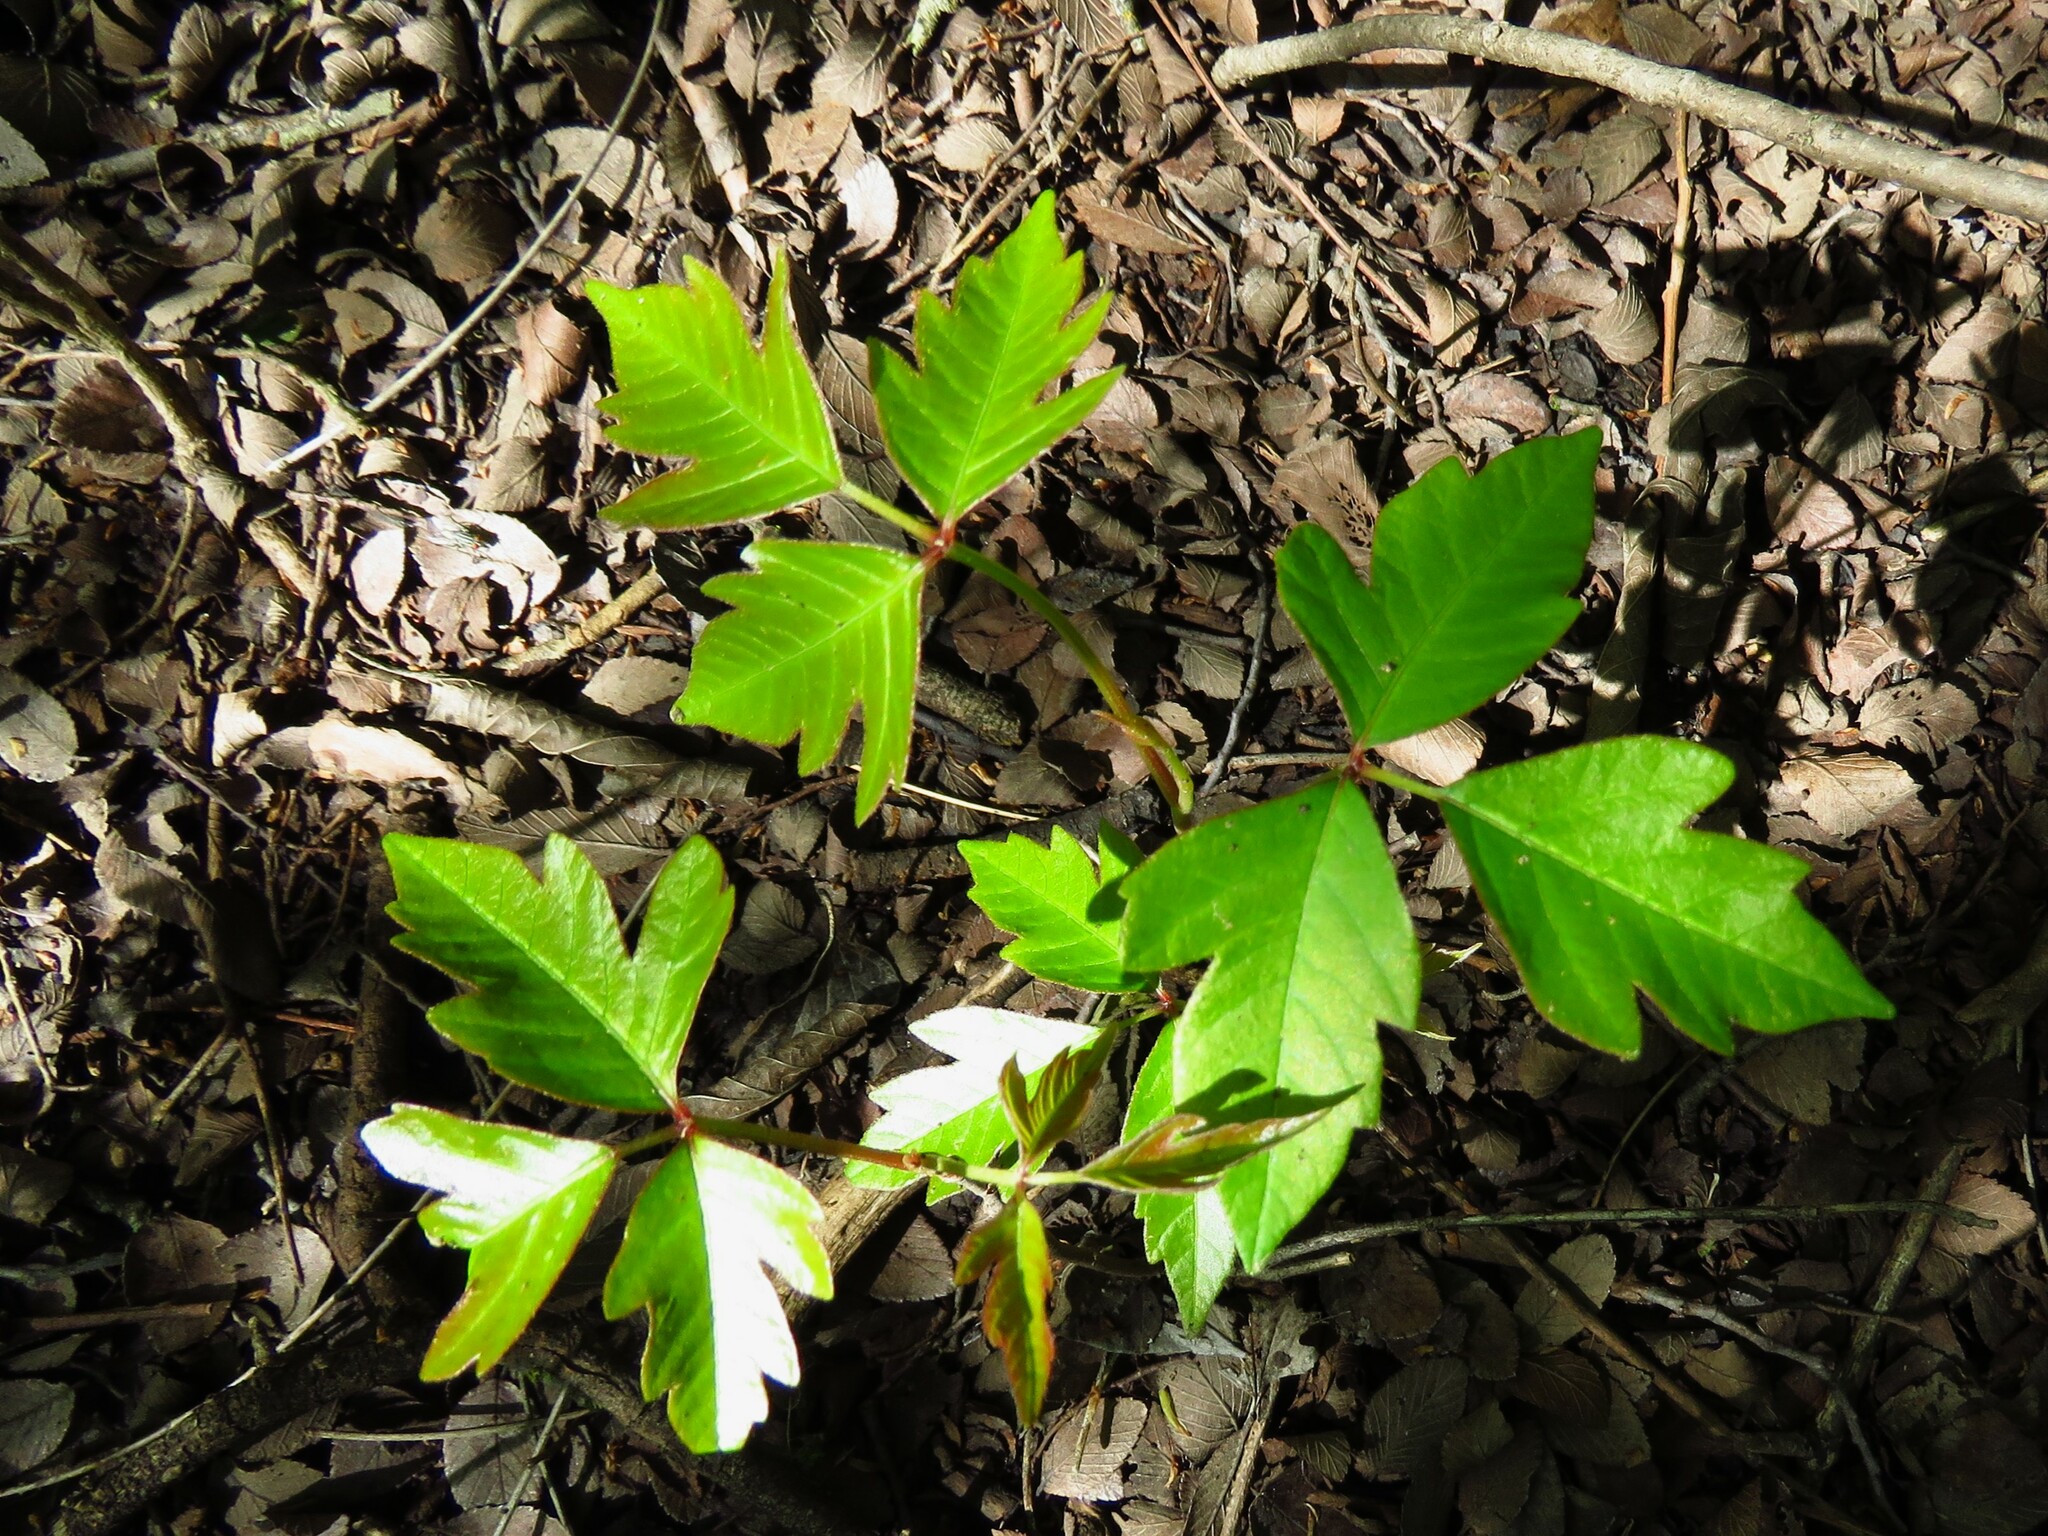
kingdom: Plantae
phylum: Tracheophyta
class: Magnoliopsida
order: Sapindales
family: Anacardiaceae
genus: Toxicodendron
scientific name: Toxicodendron radicans
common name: Poison ivy
